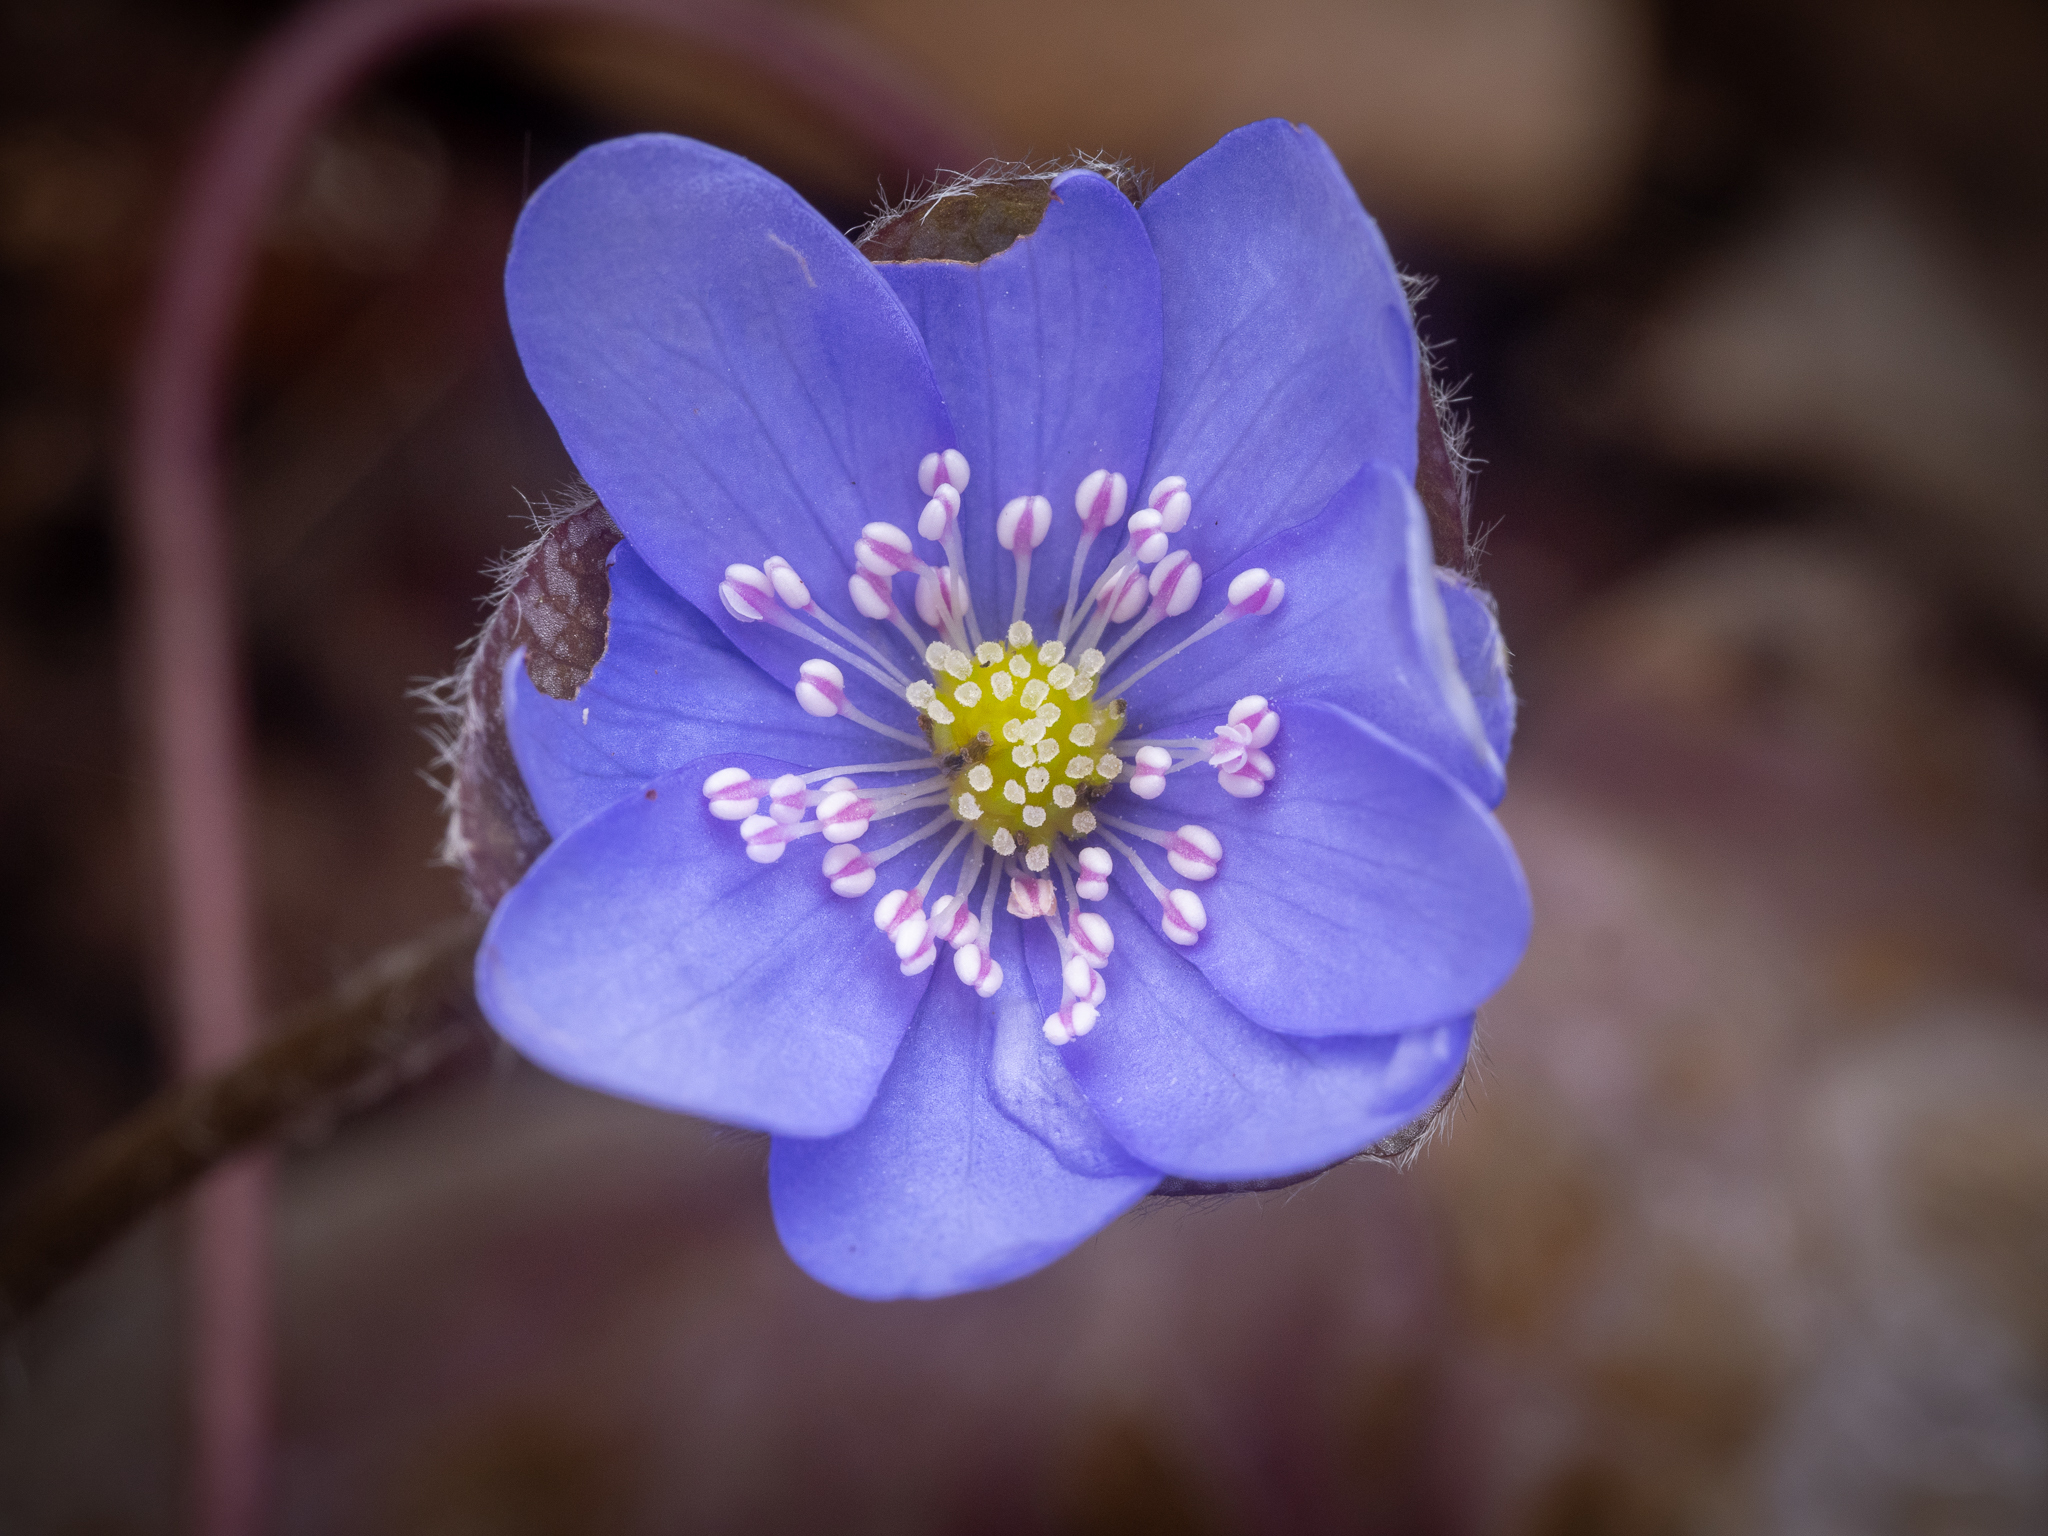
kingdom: Plantae
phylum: Tracheophyta
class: Magnoliopsida
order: Ranunculales
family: Ranunculaceae
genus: Hepatica
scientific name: Hepatica nobilis
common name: Liverleaf
